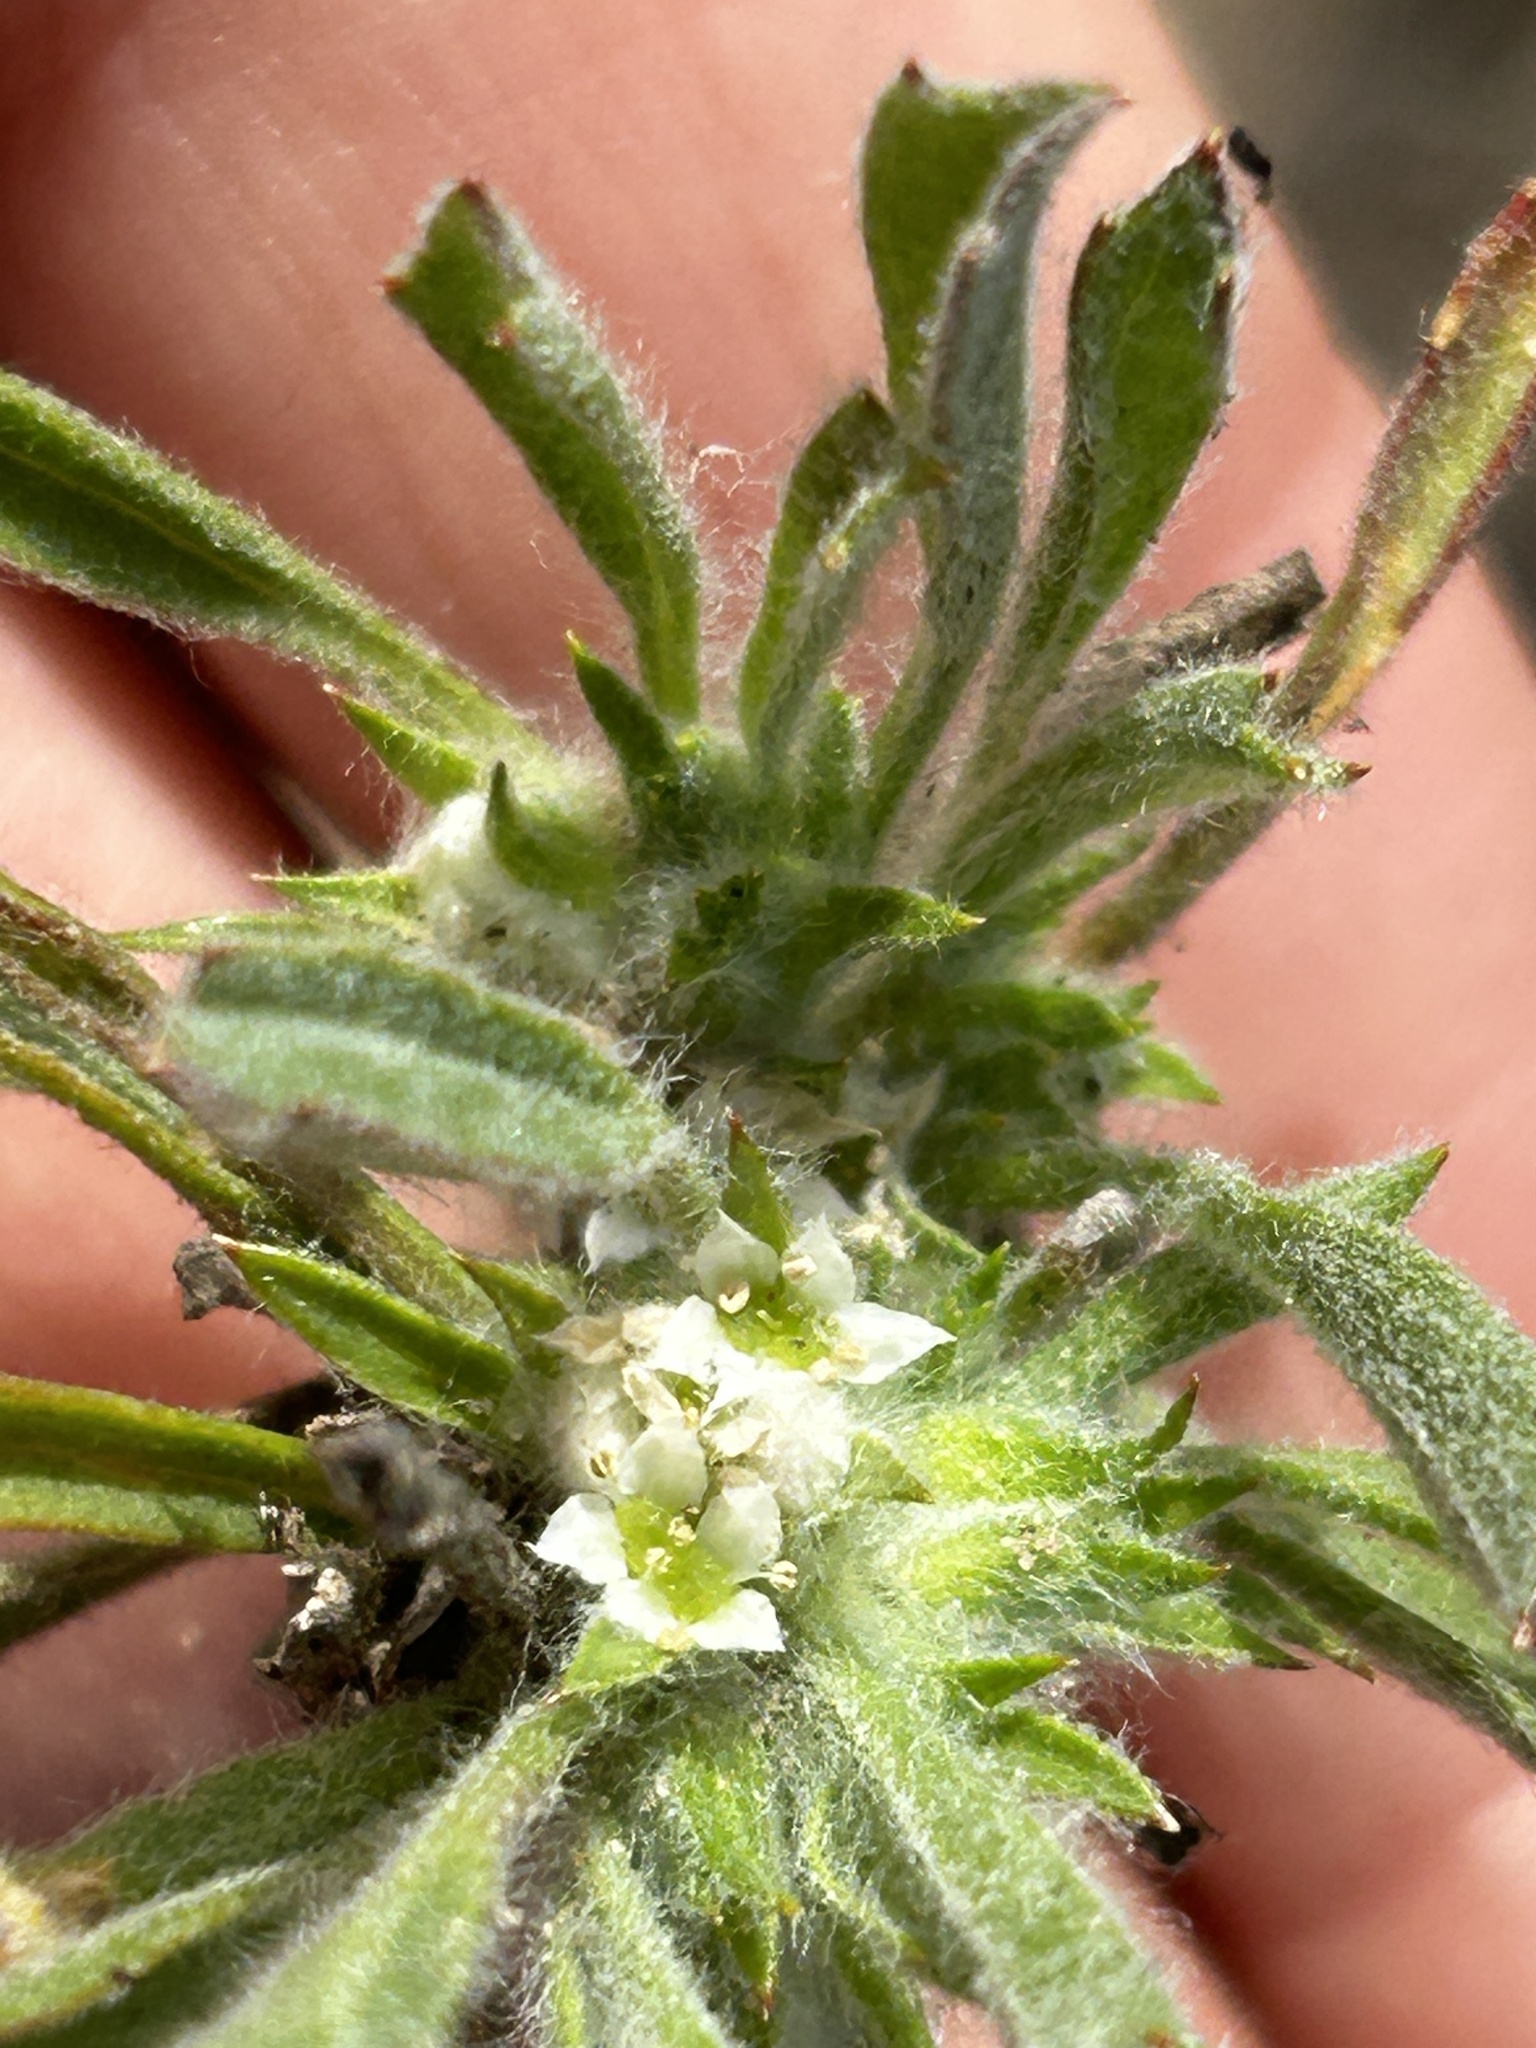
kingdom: Plantae
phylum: Tracheophyta
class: Magnoliopsida
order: Apiales
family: Apiaceae
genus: Centella
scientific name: Centella tridentata
